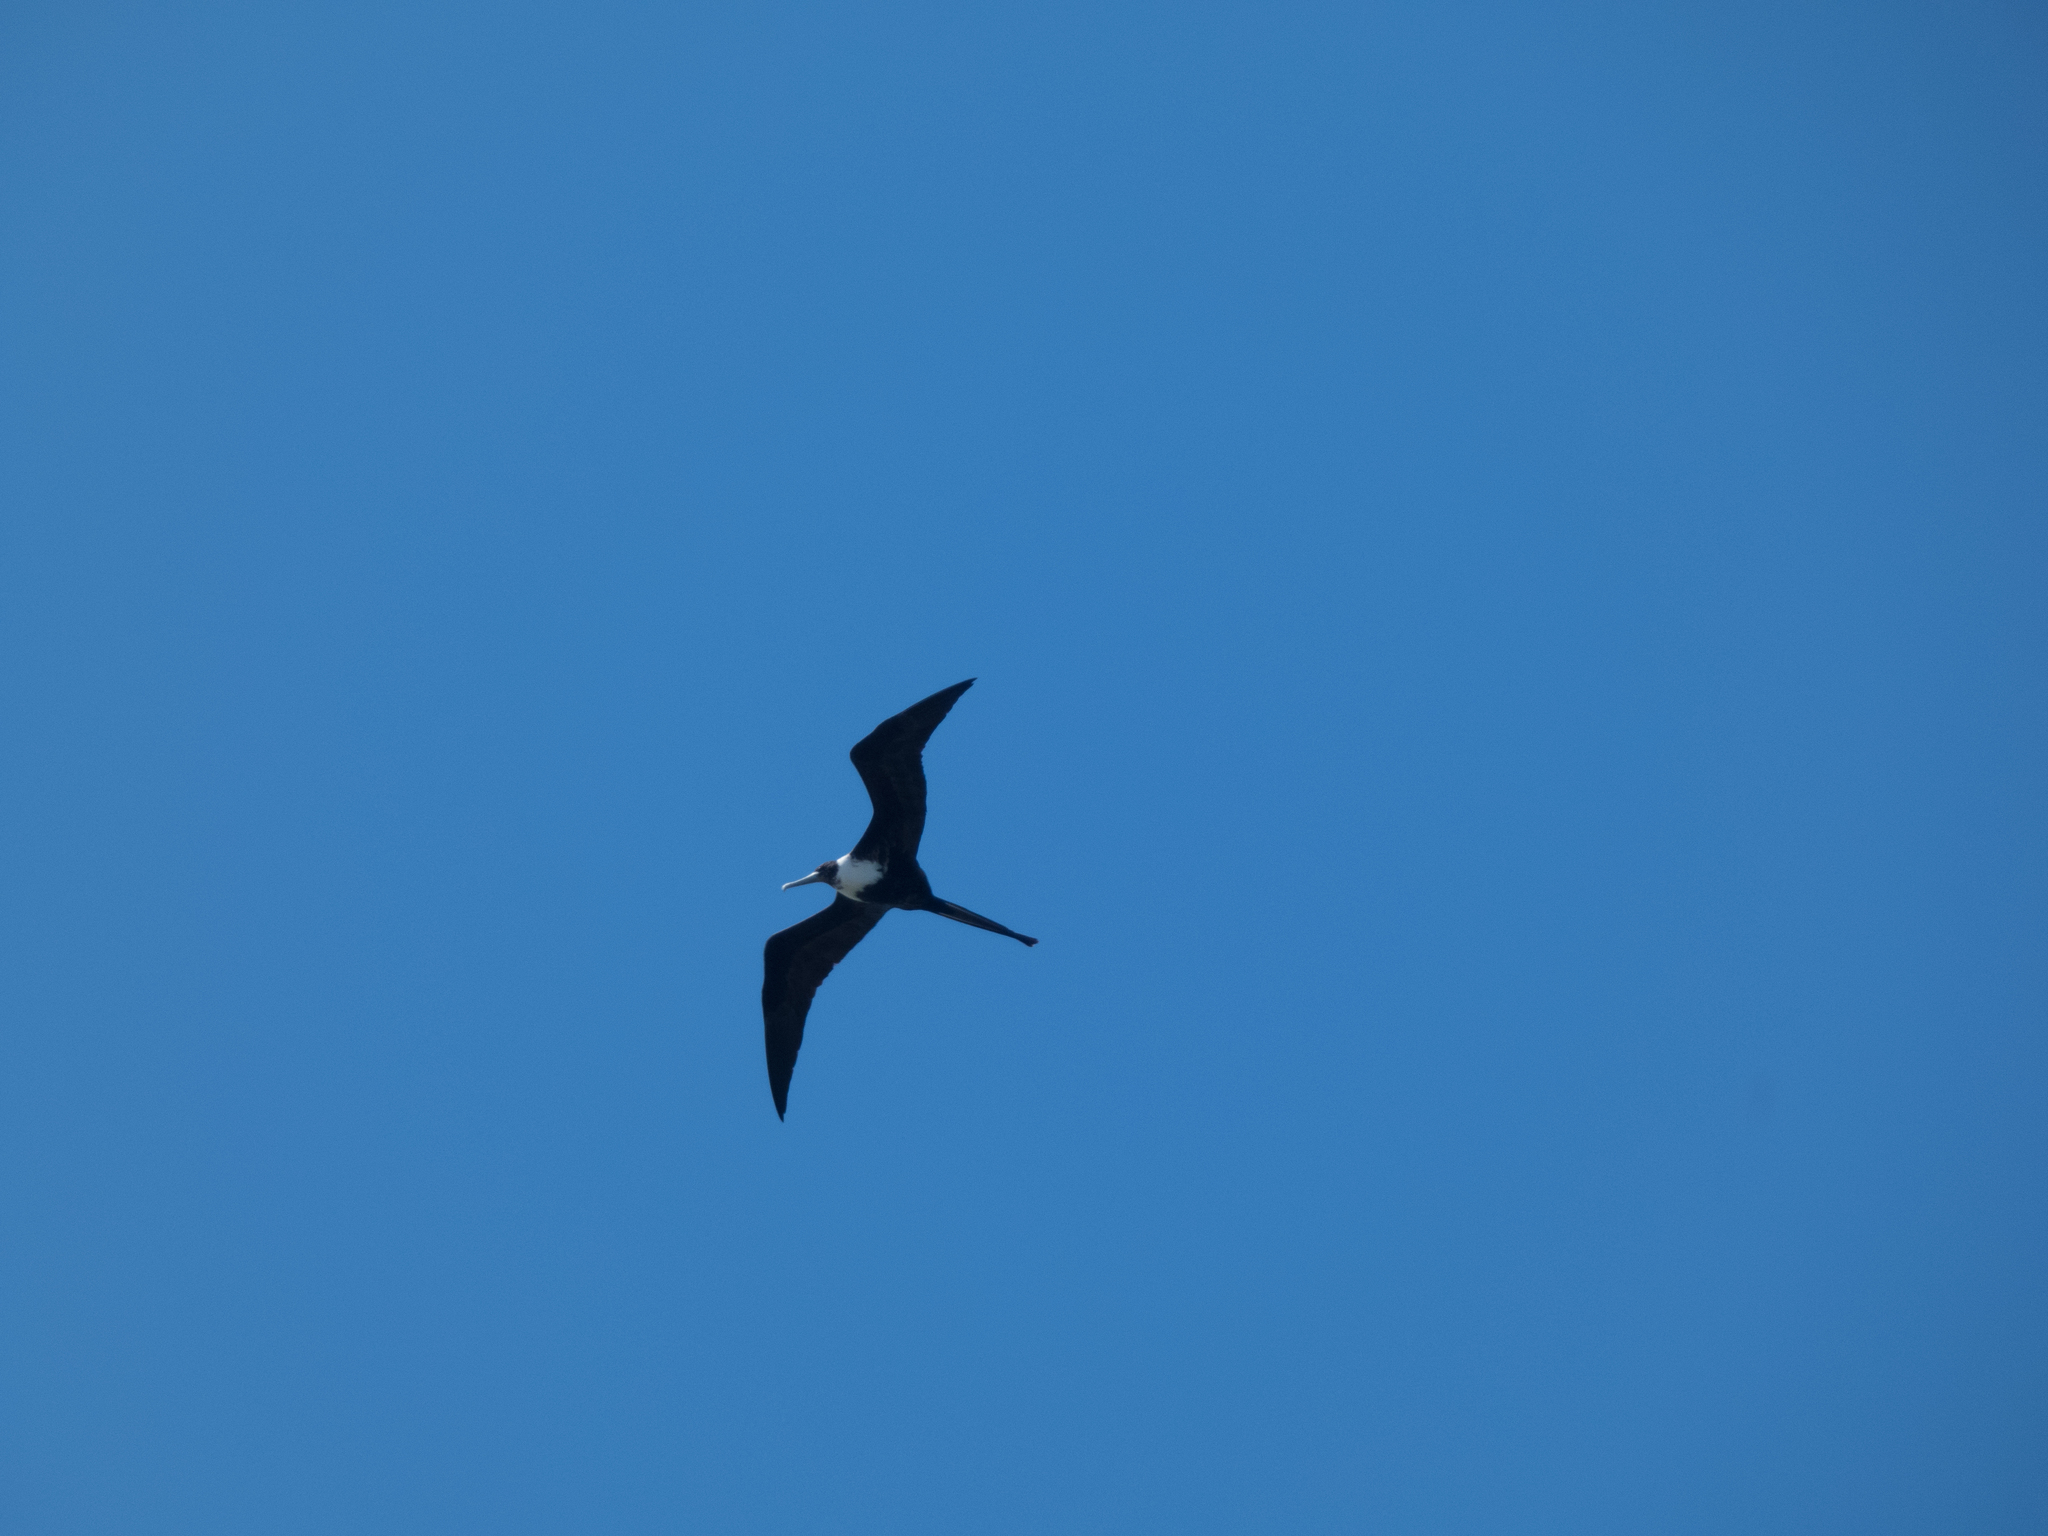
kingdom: Animalia
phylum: Chordata
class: Aves
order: Suliformes
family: Fregatidae
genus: Fregata
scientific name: Fregata magnificens
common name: Magnificent frigatebird
